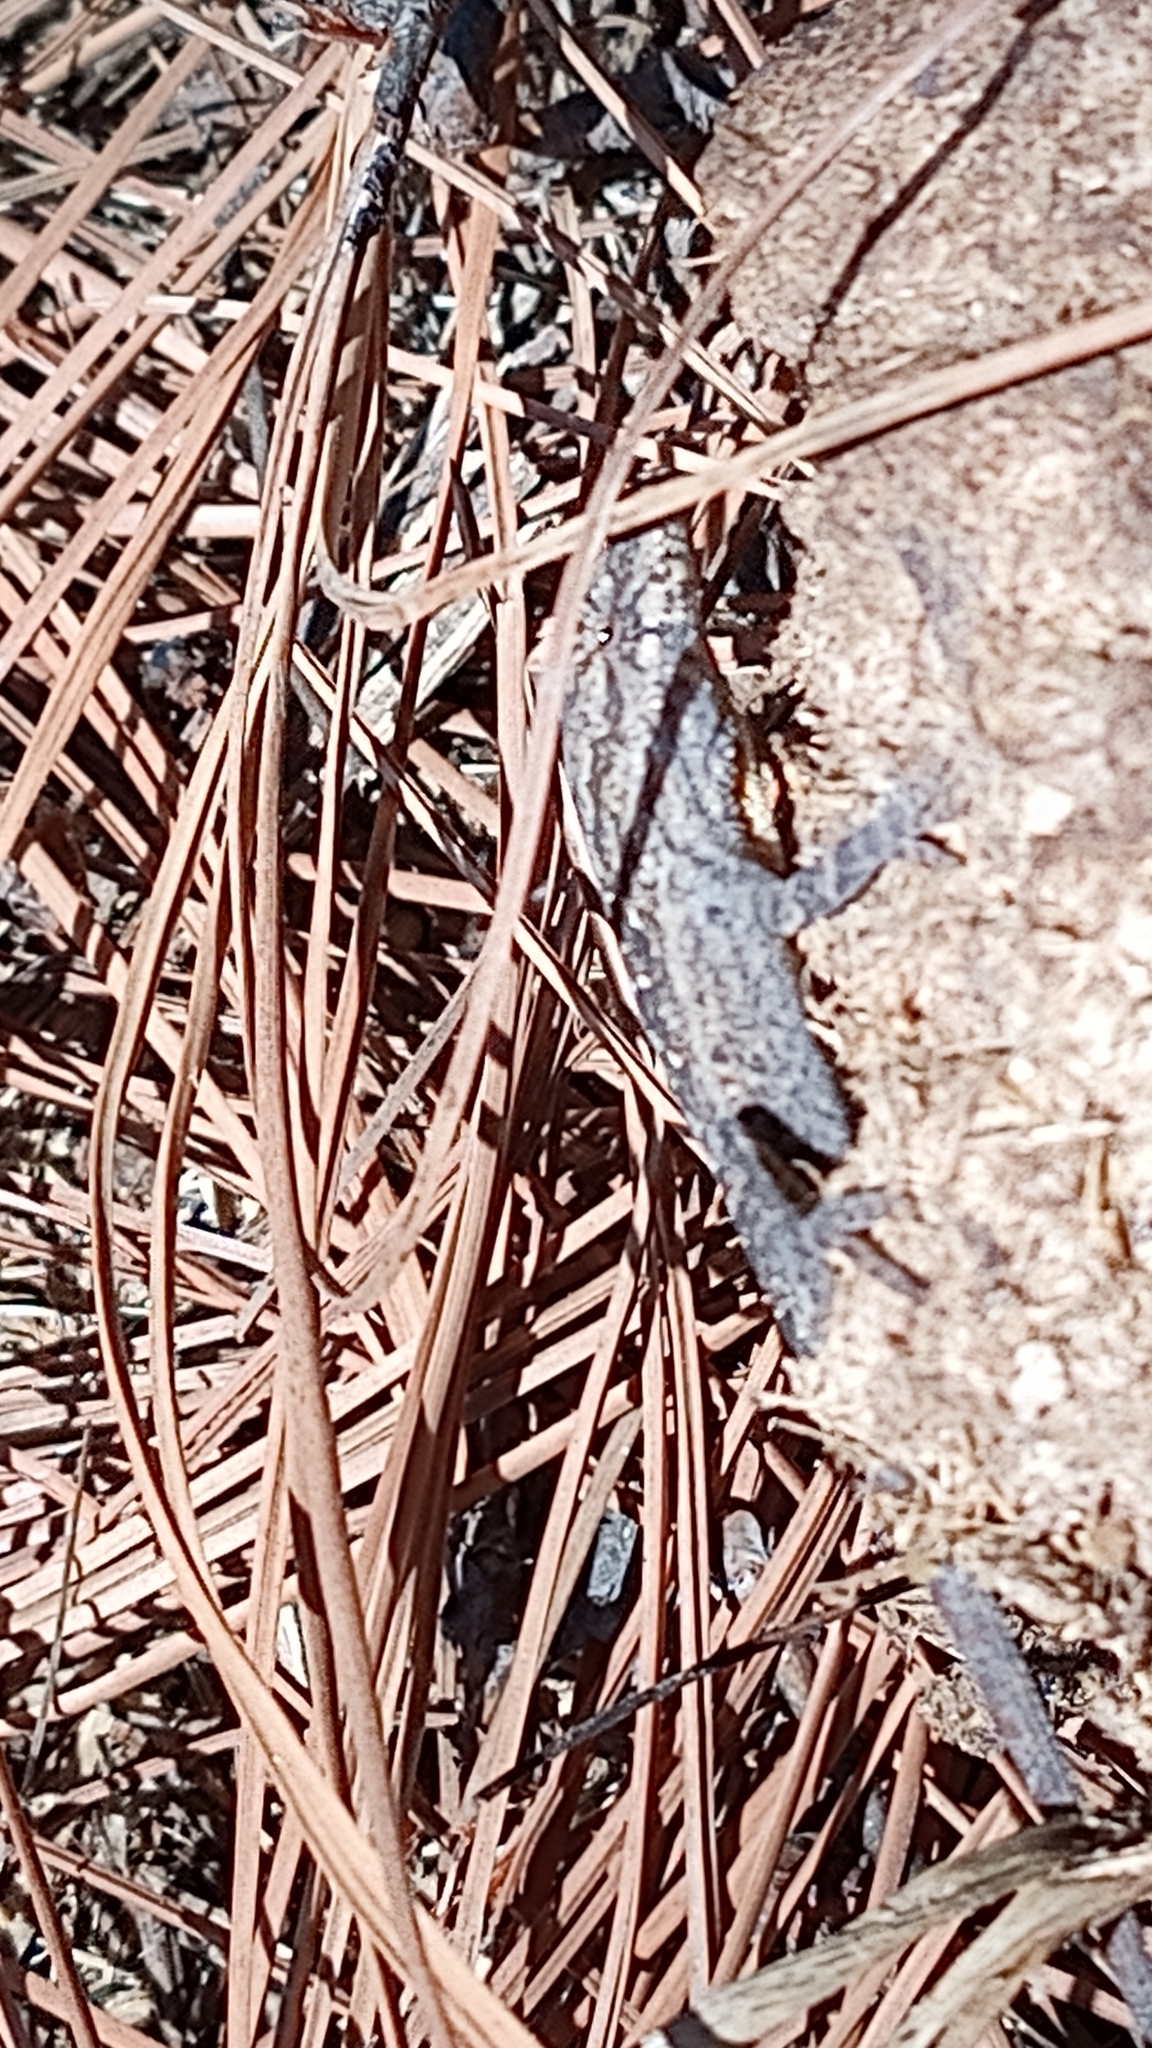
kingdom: Animalia
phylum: Chordata
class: Squamata
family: Dactyloidae
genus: Anolis
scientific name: Anolis nebulosus
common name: Clouded anole
